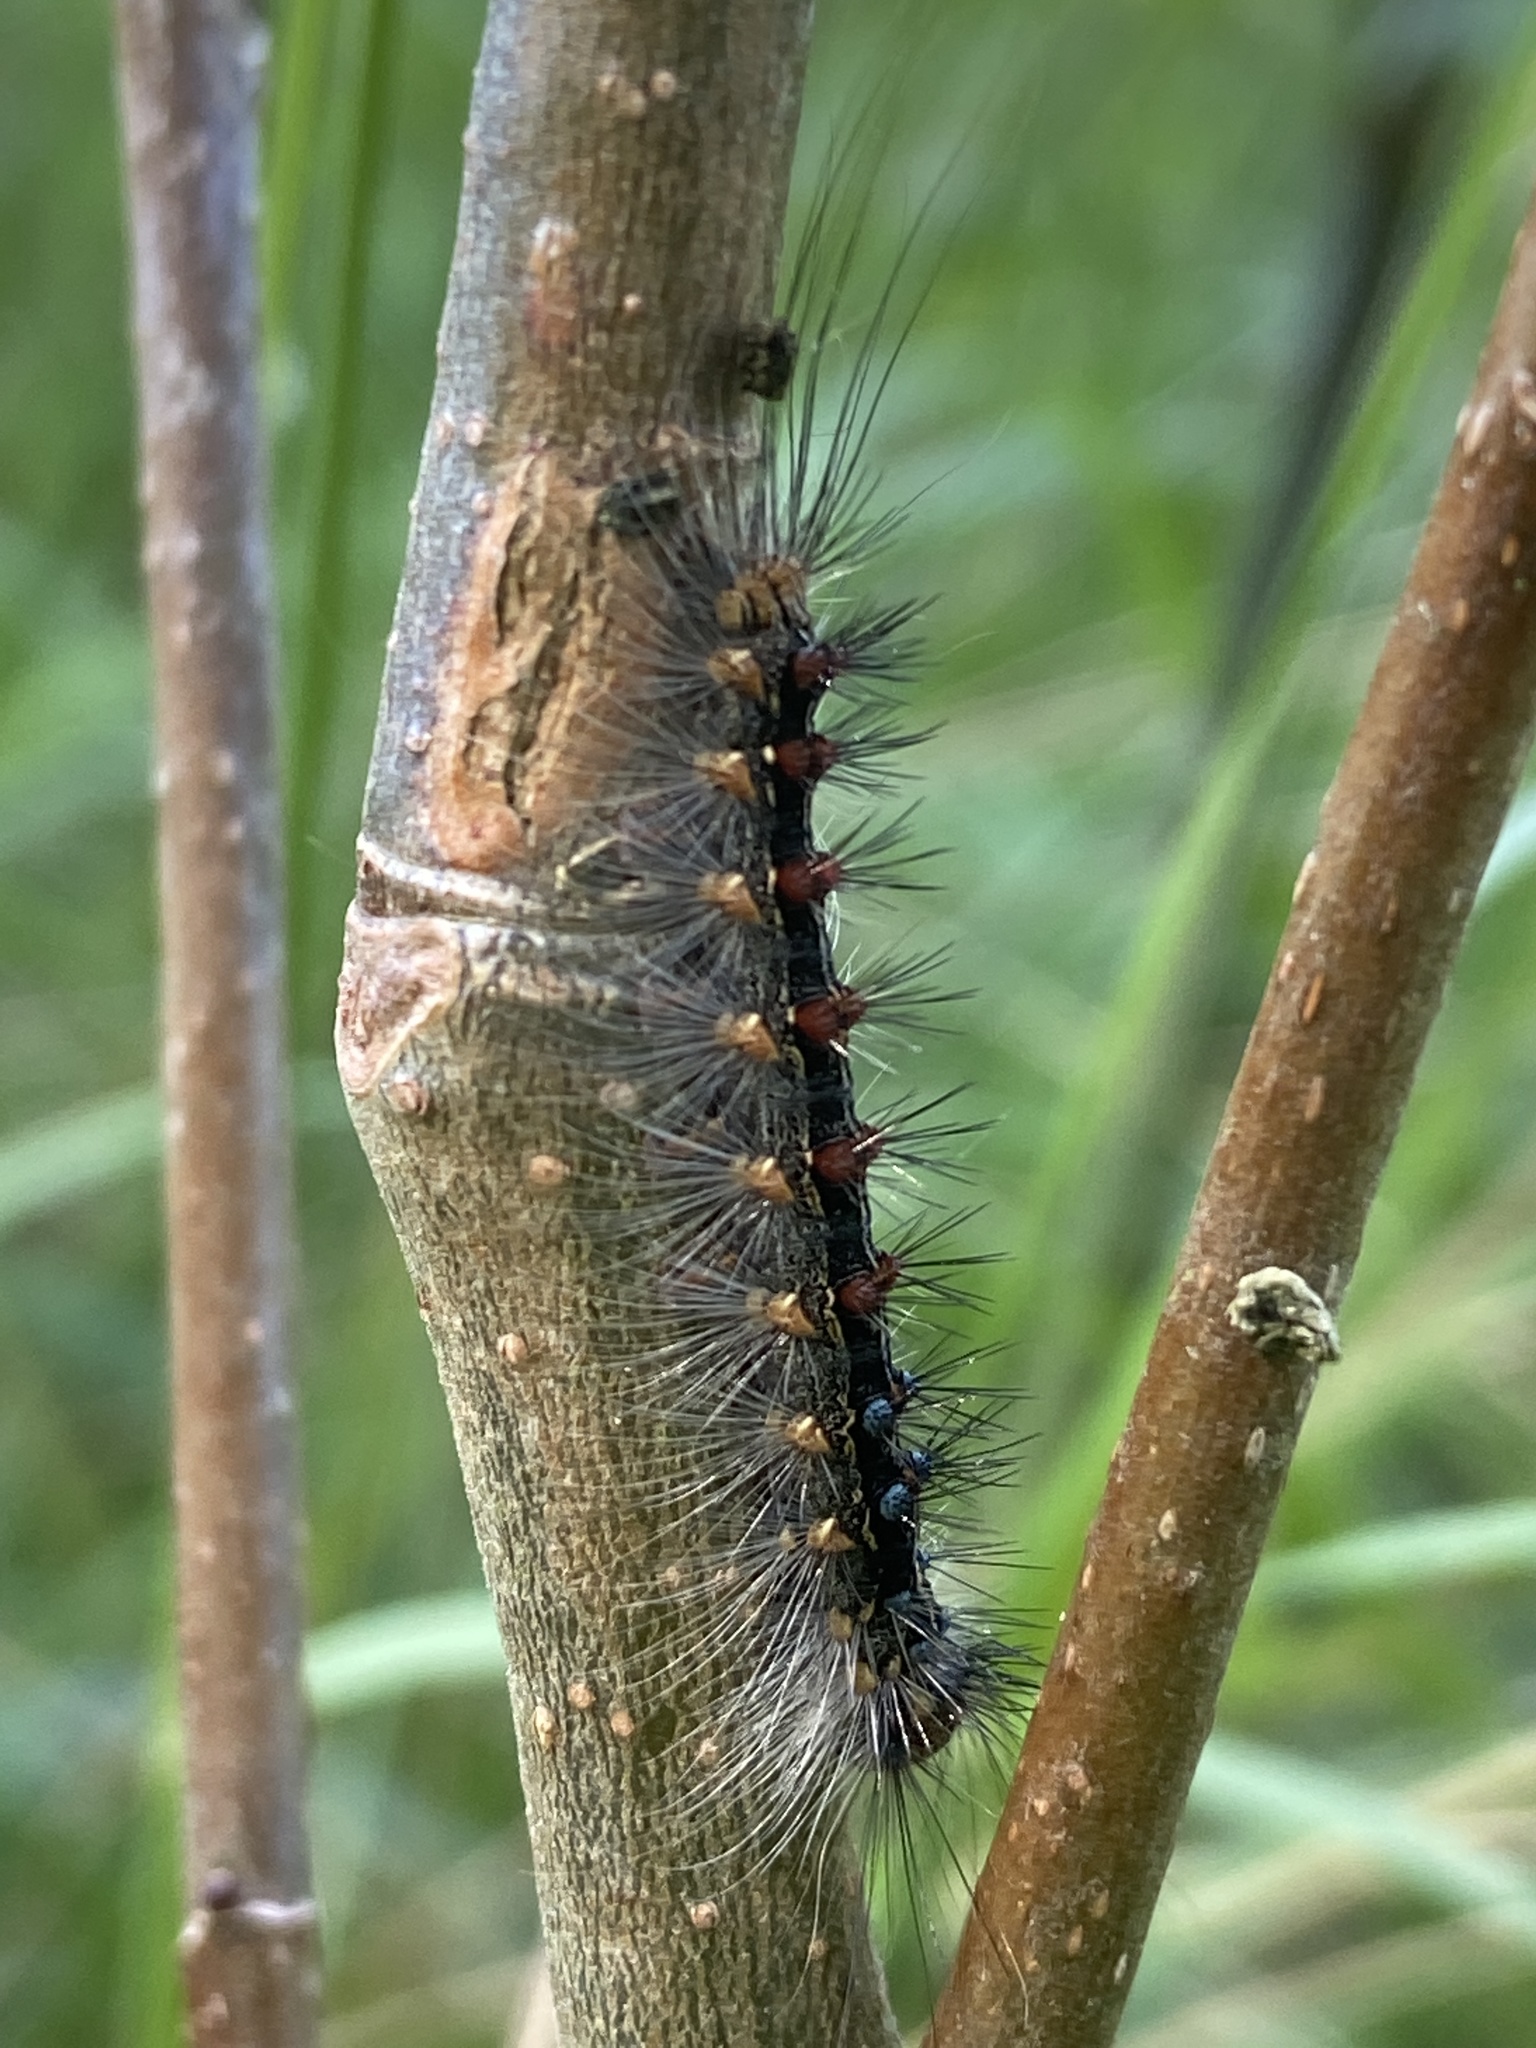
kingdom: Animalia
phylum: Arthropoda
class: Insecta
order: Lepidoptera
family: Erebidae
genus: Lymantria
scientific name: Lymantria dispar
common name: Gypsy moth
